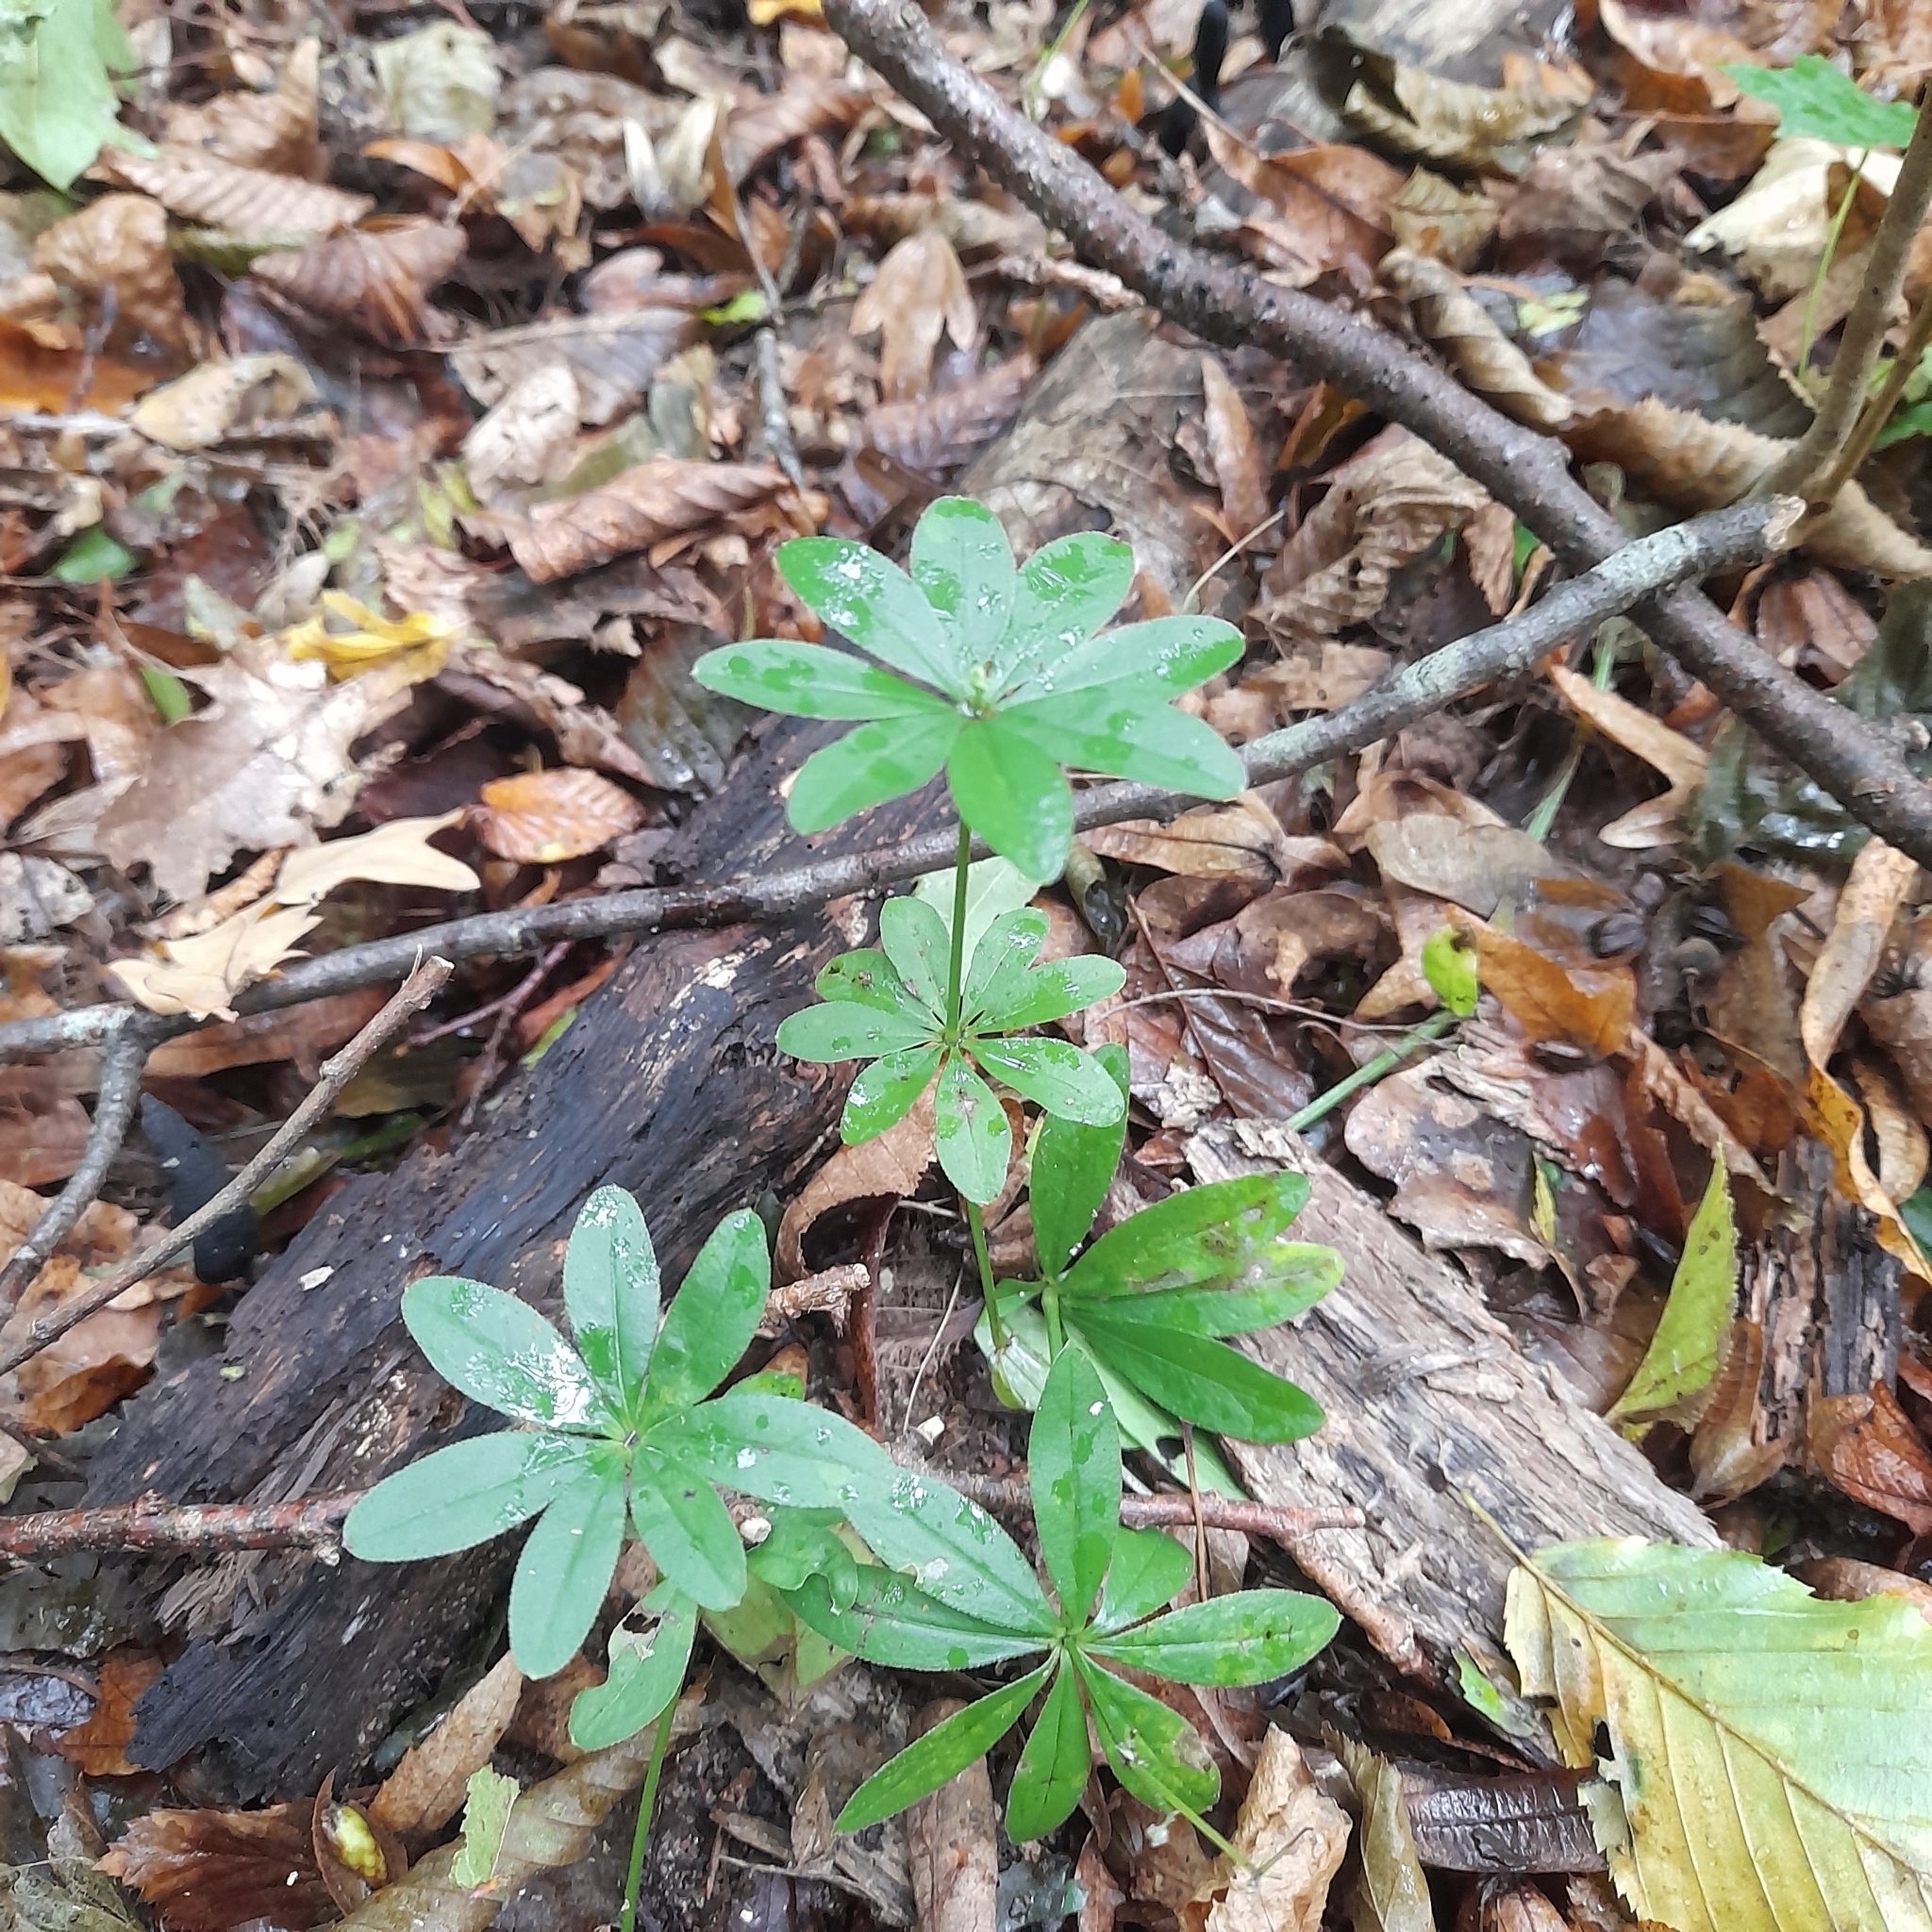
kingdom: Plantae
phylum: Tracheophyta
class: Magnoliopsida
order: Gentianales
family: Rubiaceae
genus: Galium
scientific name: Galium odoratum
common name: Sweet woodruff
